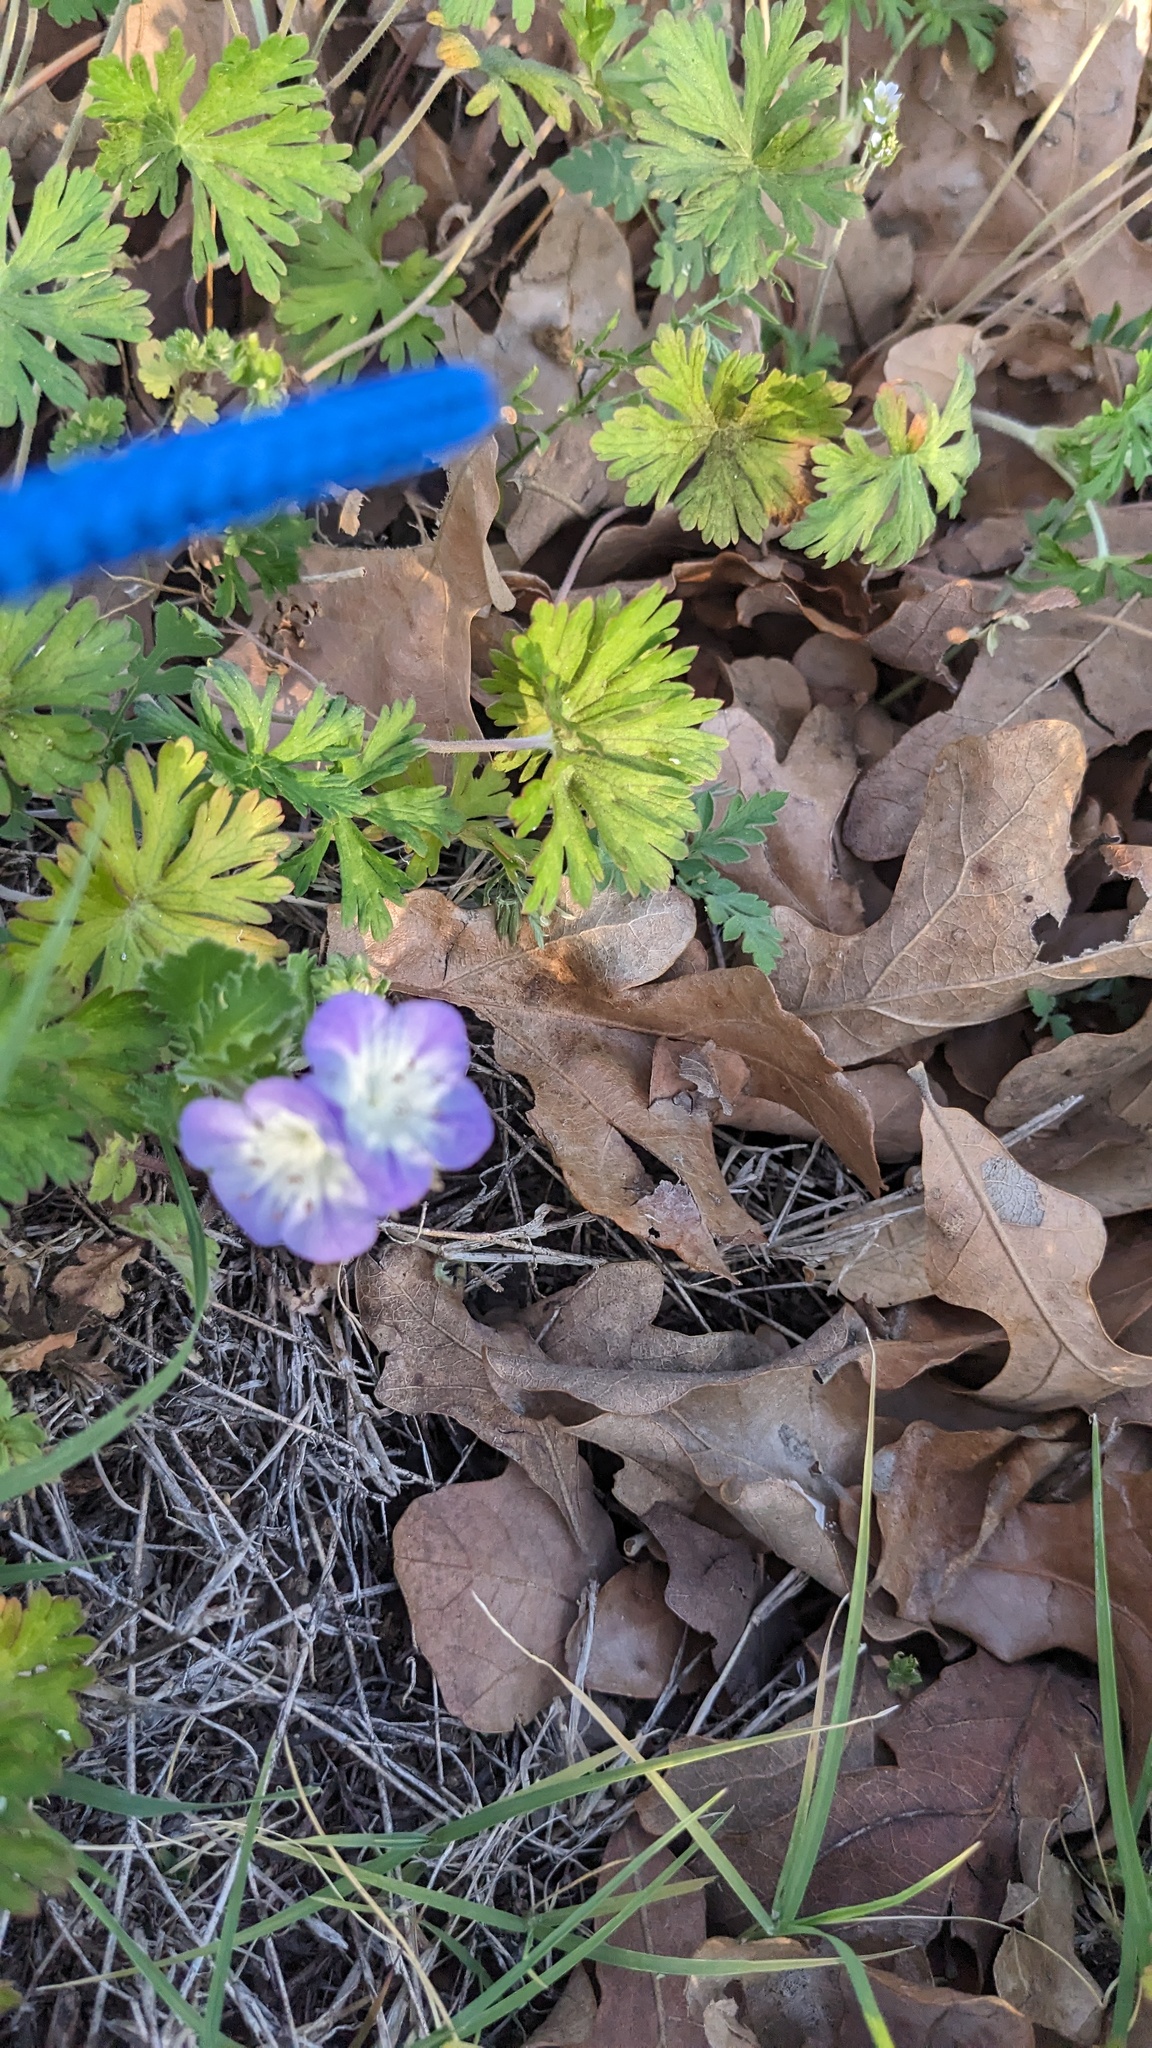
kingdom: Plantae
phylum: Tracheophyta
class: Magnoliopsida
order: Boraginales
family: Hydrophyllaceae
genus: Phacelia
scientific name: Phacelia patuliflora
